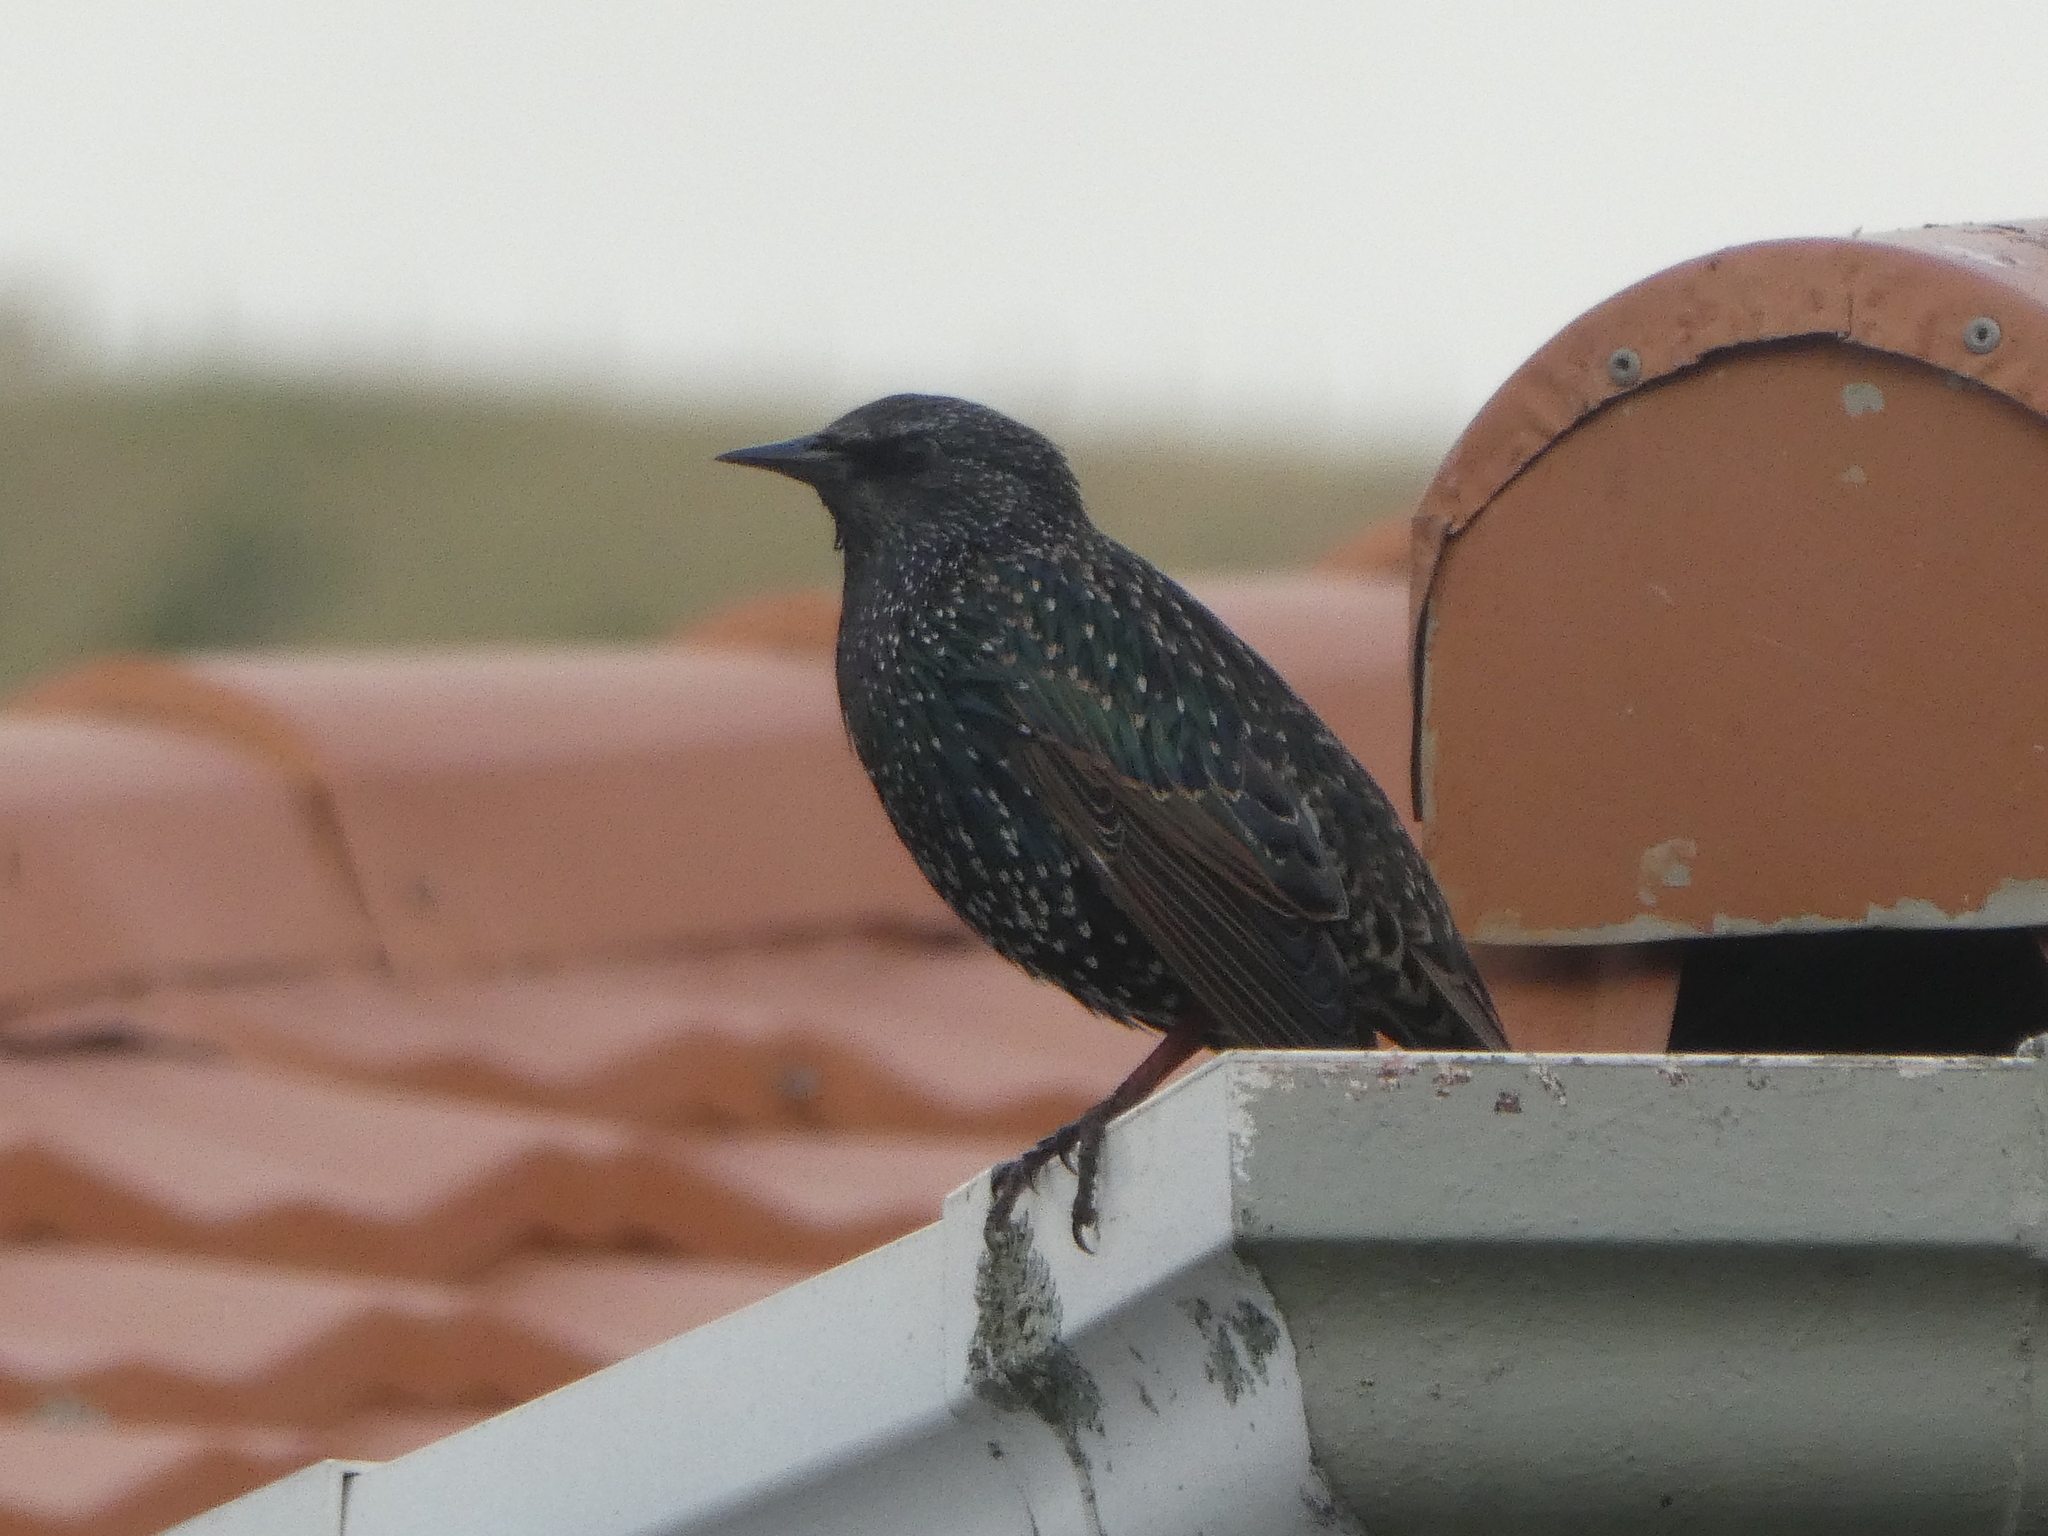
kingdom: Animalia
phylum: Chordata
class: Aves
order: Passeriformes
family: Sturnidae
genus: Sturnus
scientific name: Sturnus vulgaris
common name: Common starling
